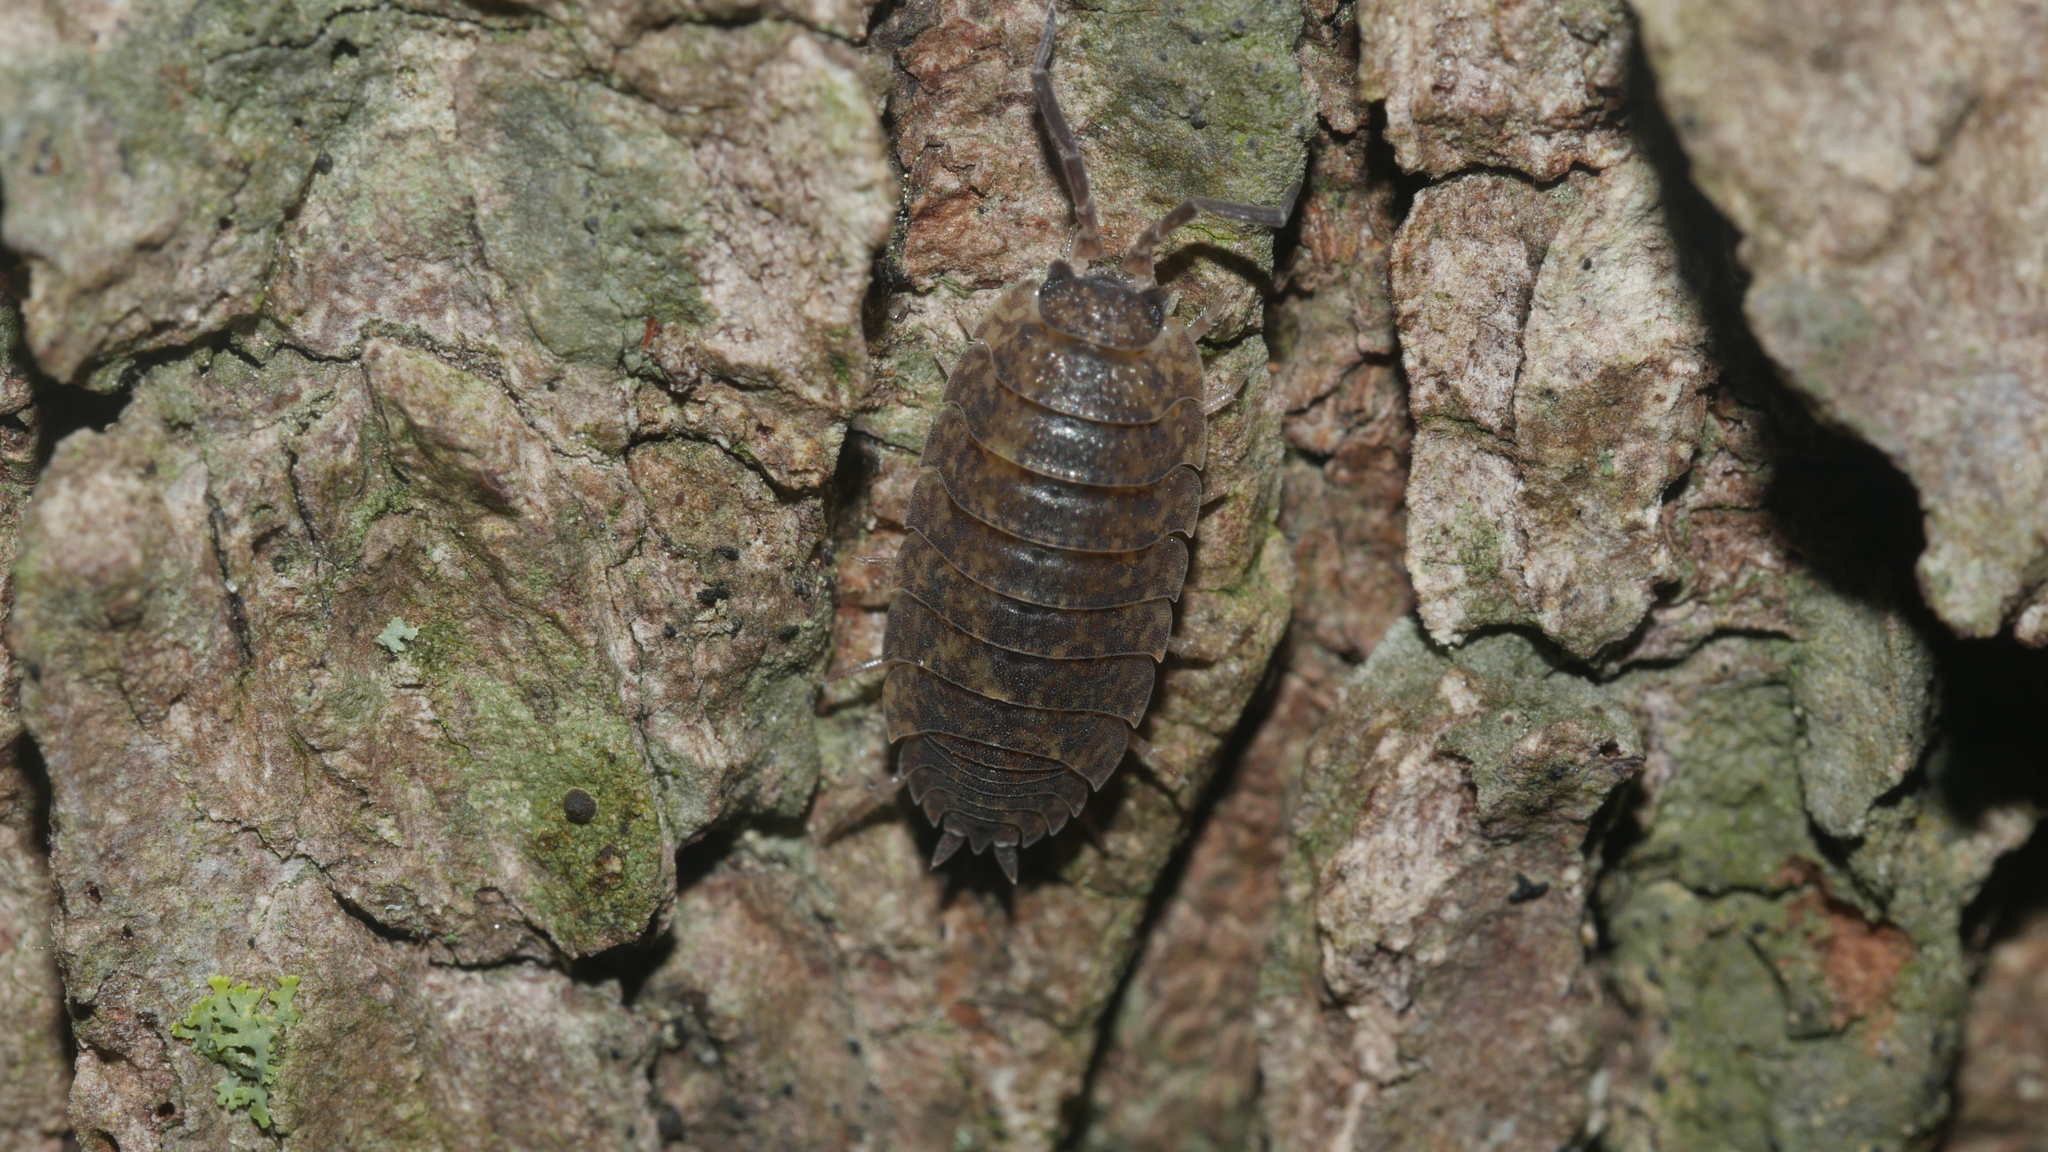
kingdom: Animalia
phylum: Arthropoda
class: Malacostraca
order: Isopoda
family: Porcellionidae
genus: Porcellio
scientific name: Porcellio scaber
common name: Common rough woodlouse
